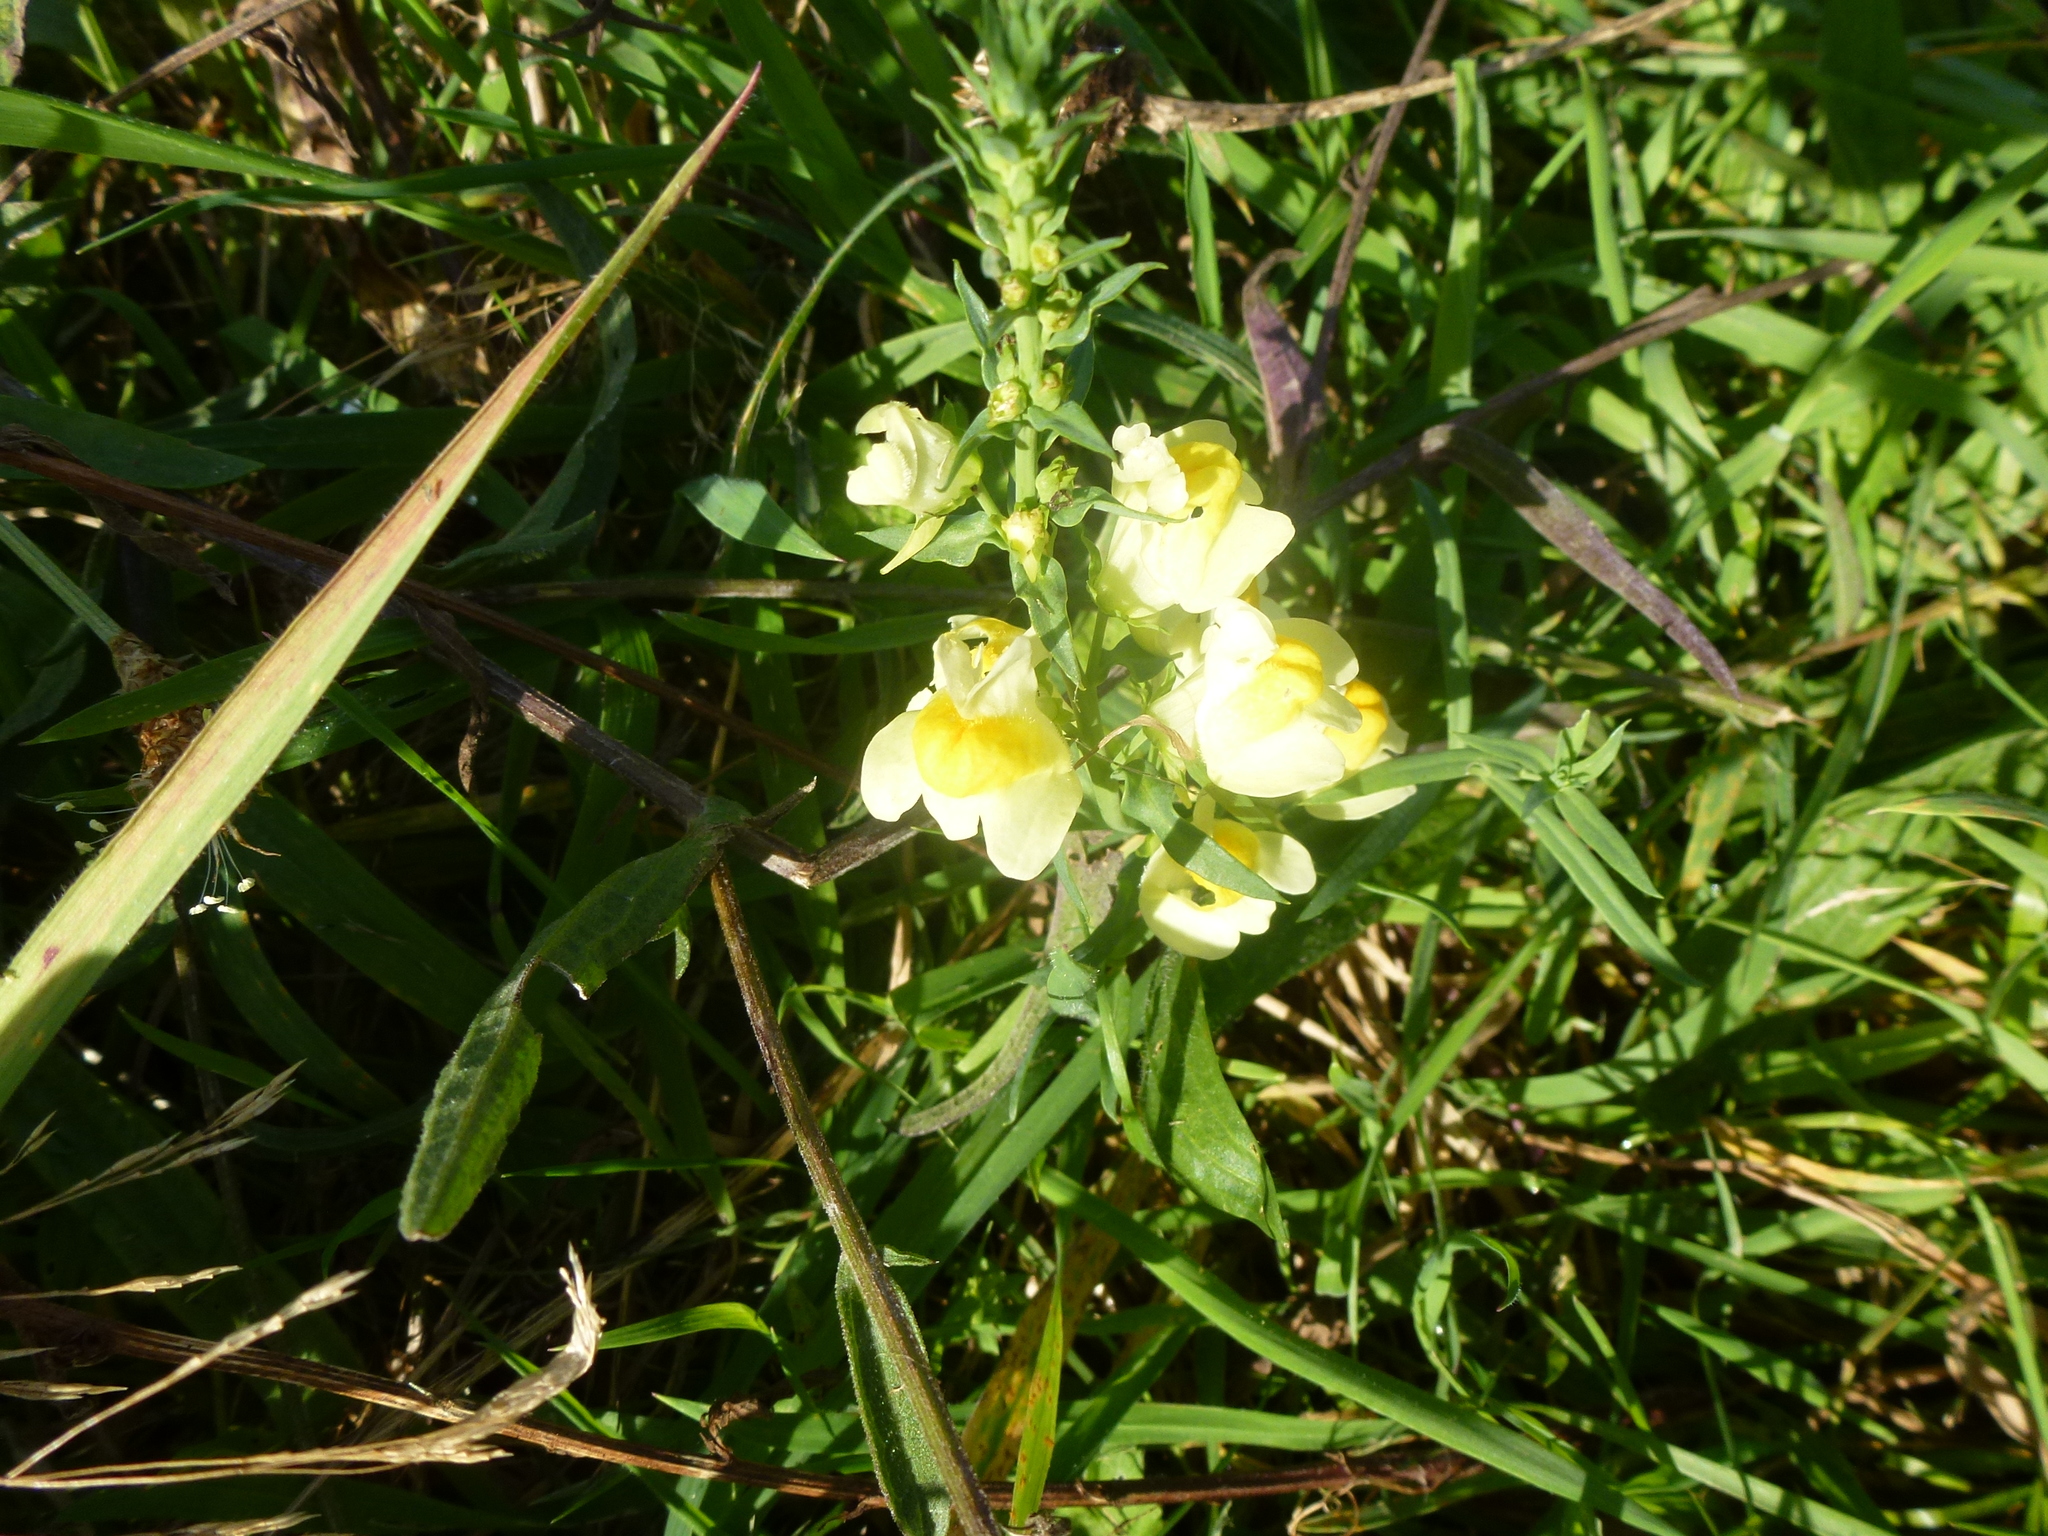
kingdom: Plantae
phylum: Tracheophyta
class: Magnoliopsida
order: Lamiales
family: Plantaginaceae
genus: Linaria
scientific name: Linaria vulgaris
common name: Butter and eggs
